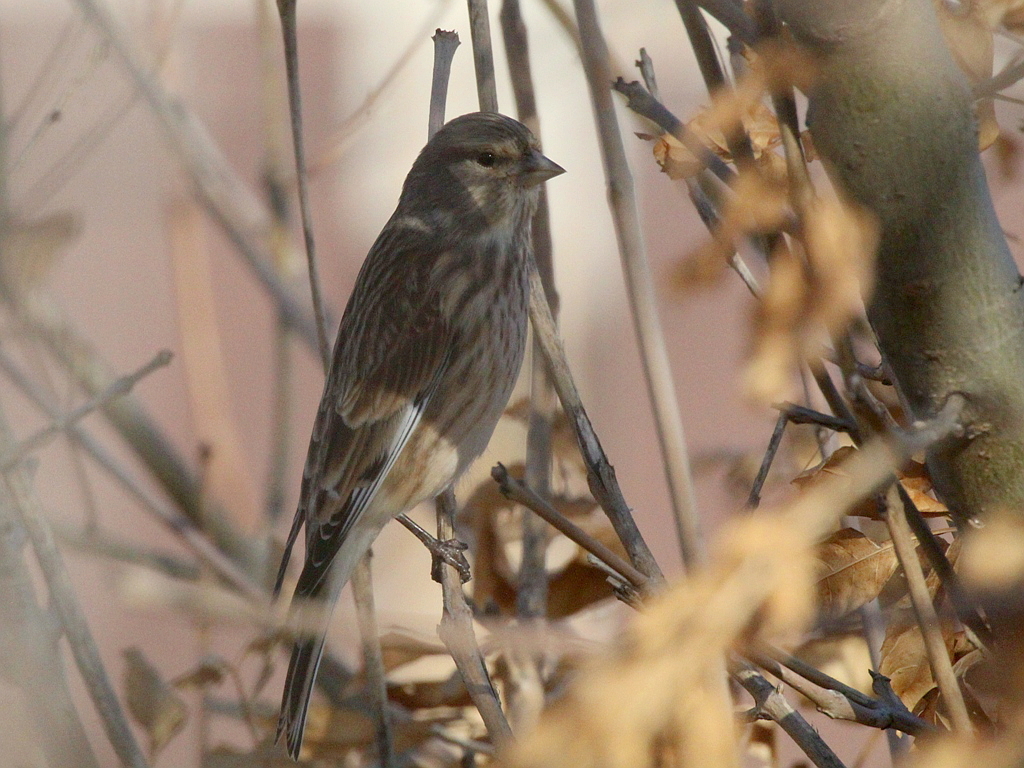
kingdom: Animalia
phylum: Chordata
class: Aves
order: Passeriformes
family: Fringillidae
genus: Linaria
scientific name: Linaria cannabina
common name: Common linnet
